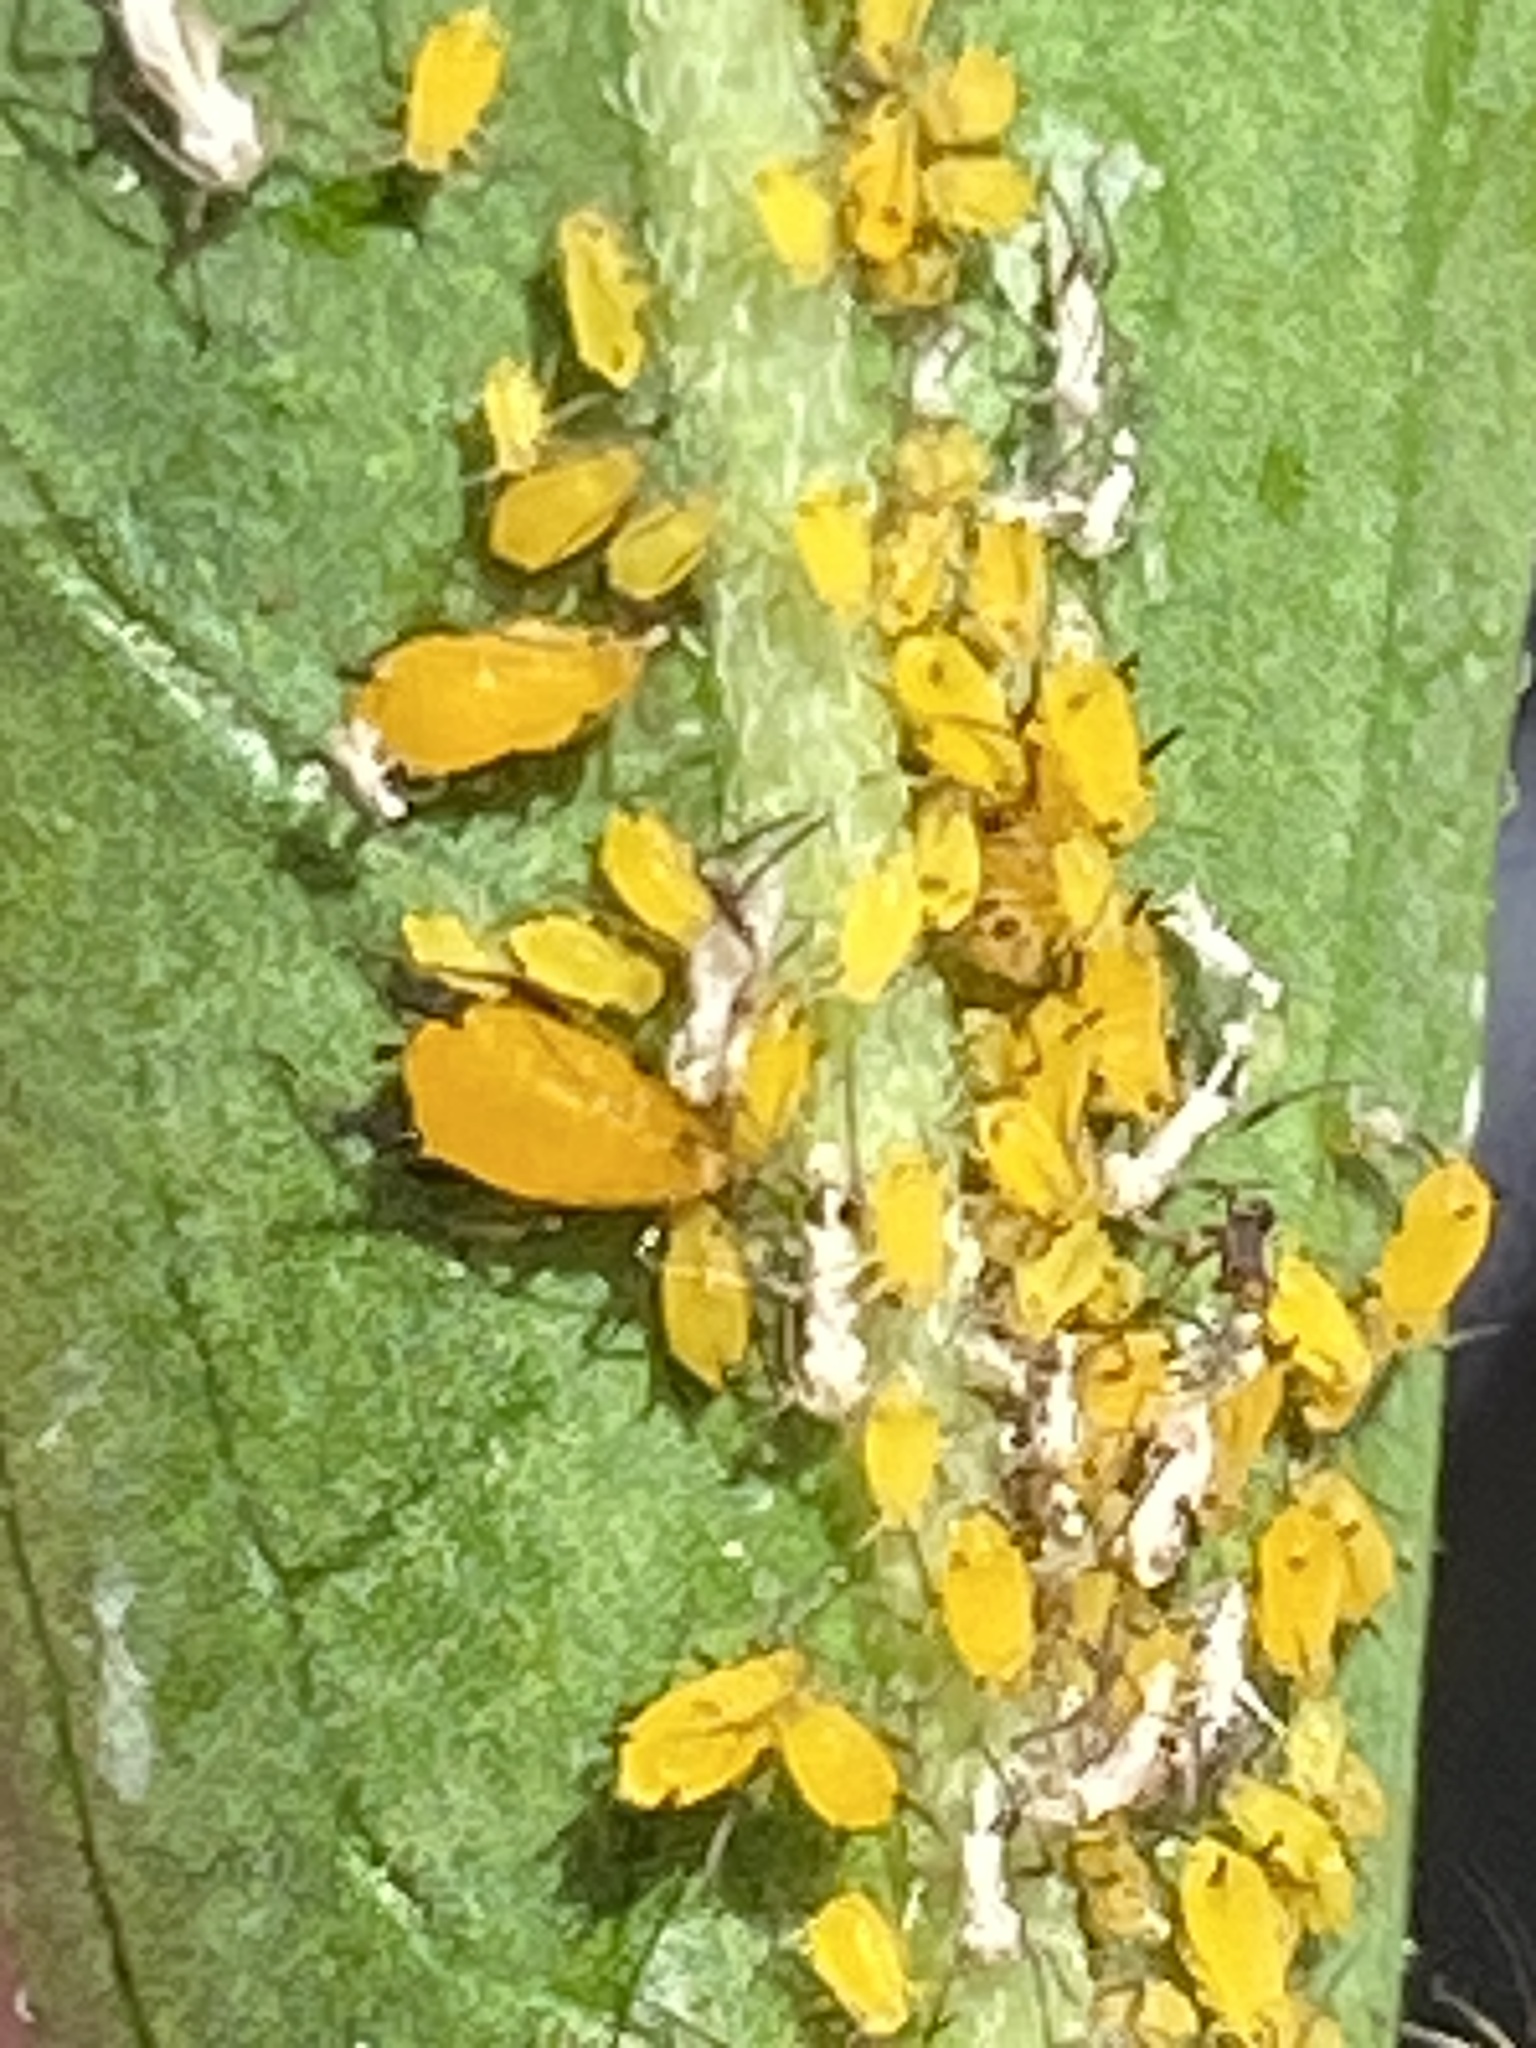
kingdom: Animalia
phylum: Arthropoda
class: Insecta
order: Hemiptera
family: Aphididae
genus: Aphis
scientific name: Aphis nerii
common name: Oleander aphid
